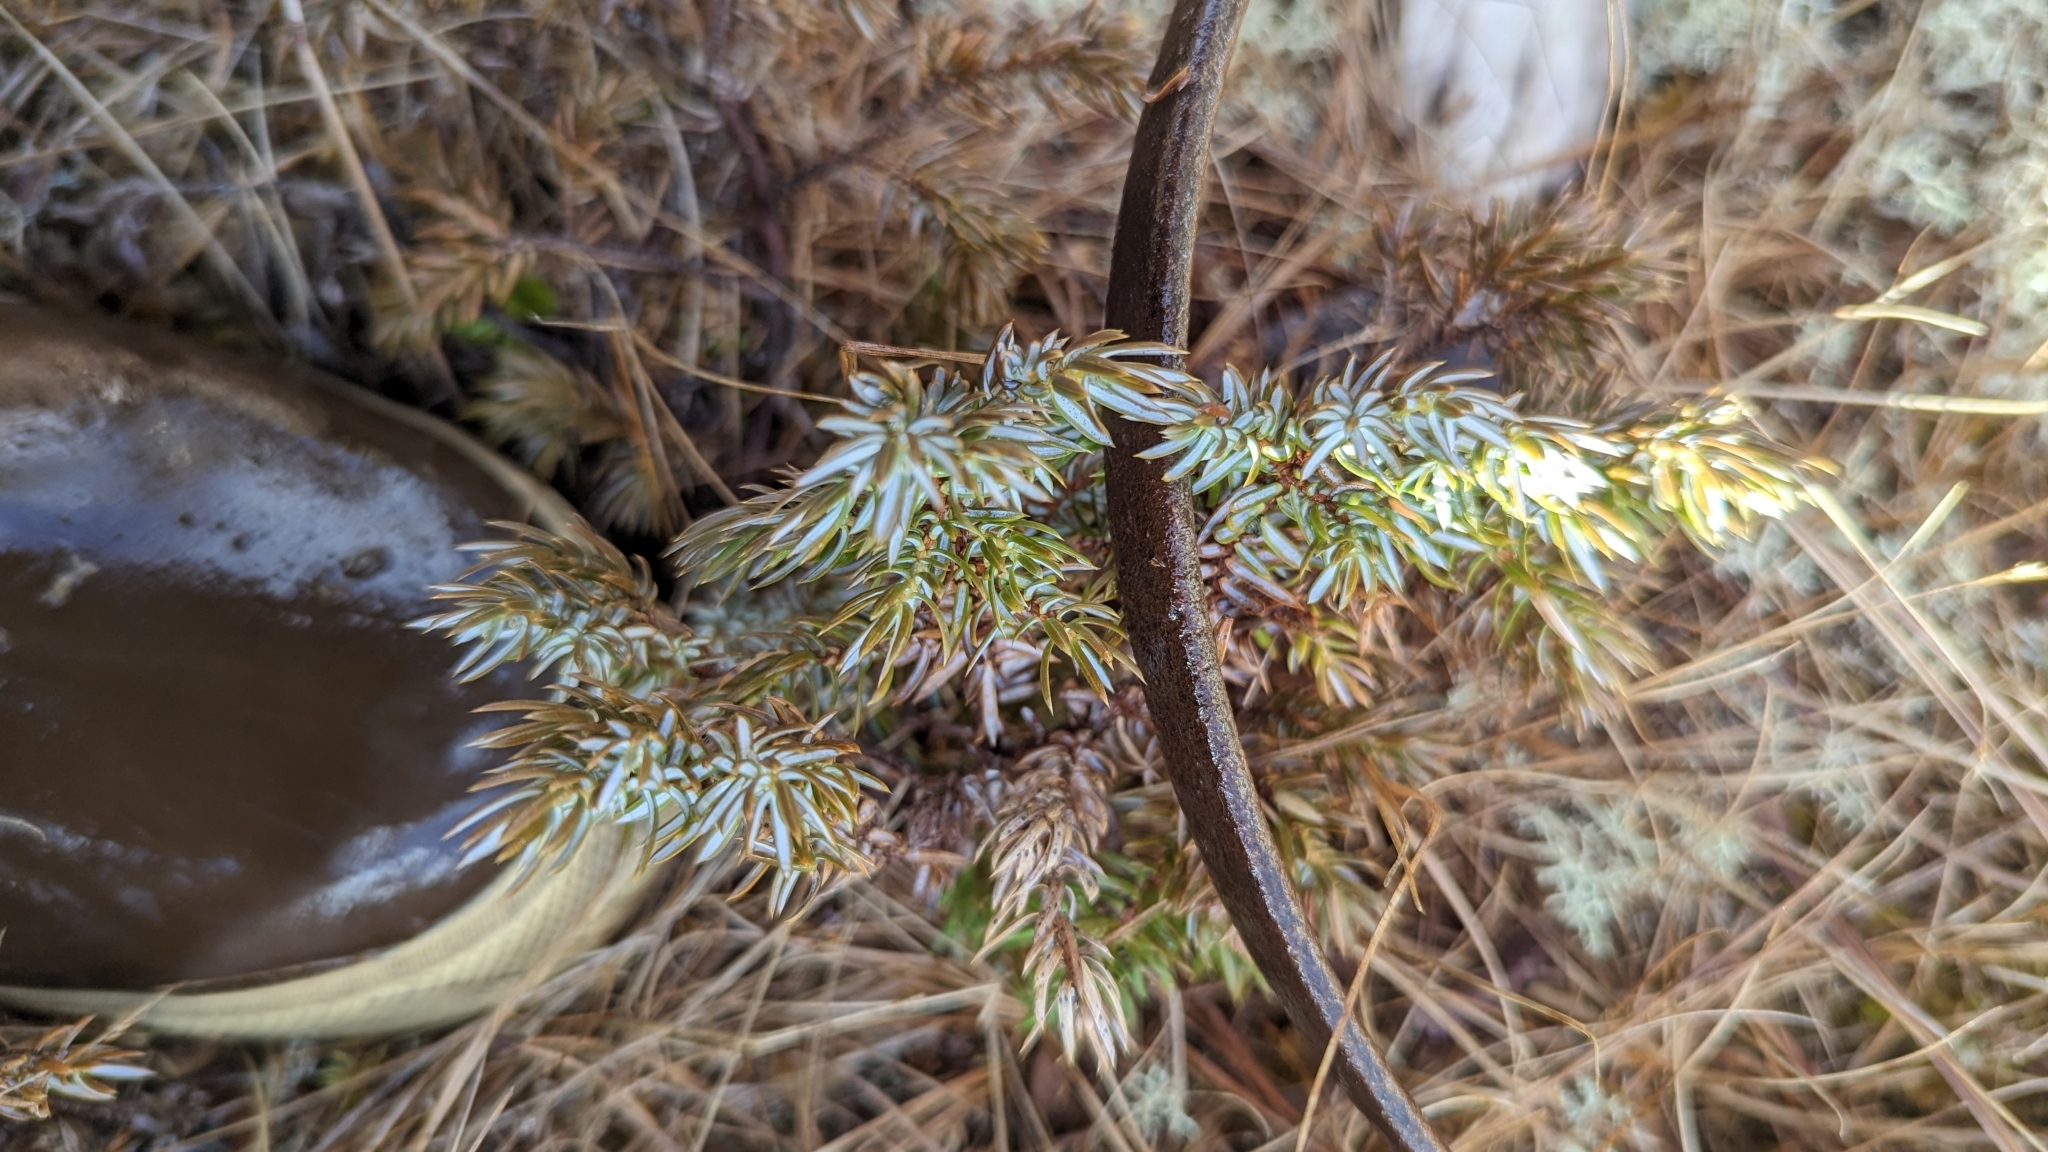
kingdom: Plantae
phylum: Tracheophyta
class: Pinopsida
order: Pinales
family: Cupressaceae
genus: Juniperus
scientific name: Juniperus communis
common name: Common juniper
